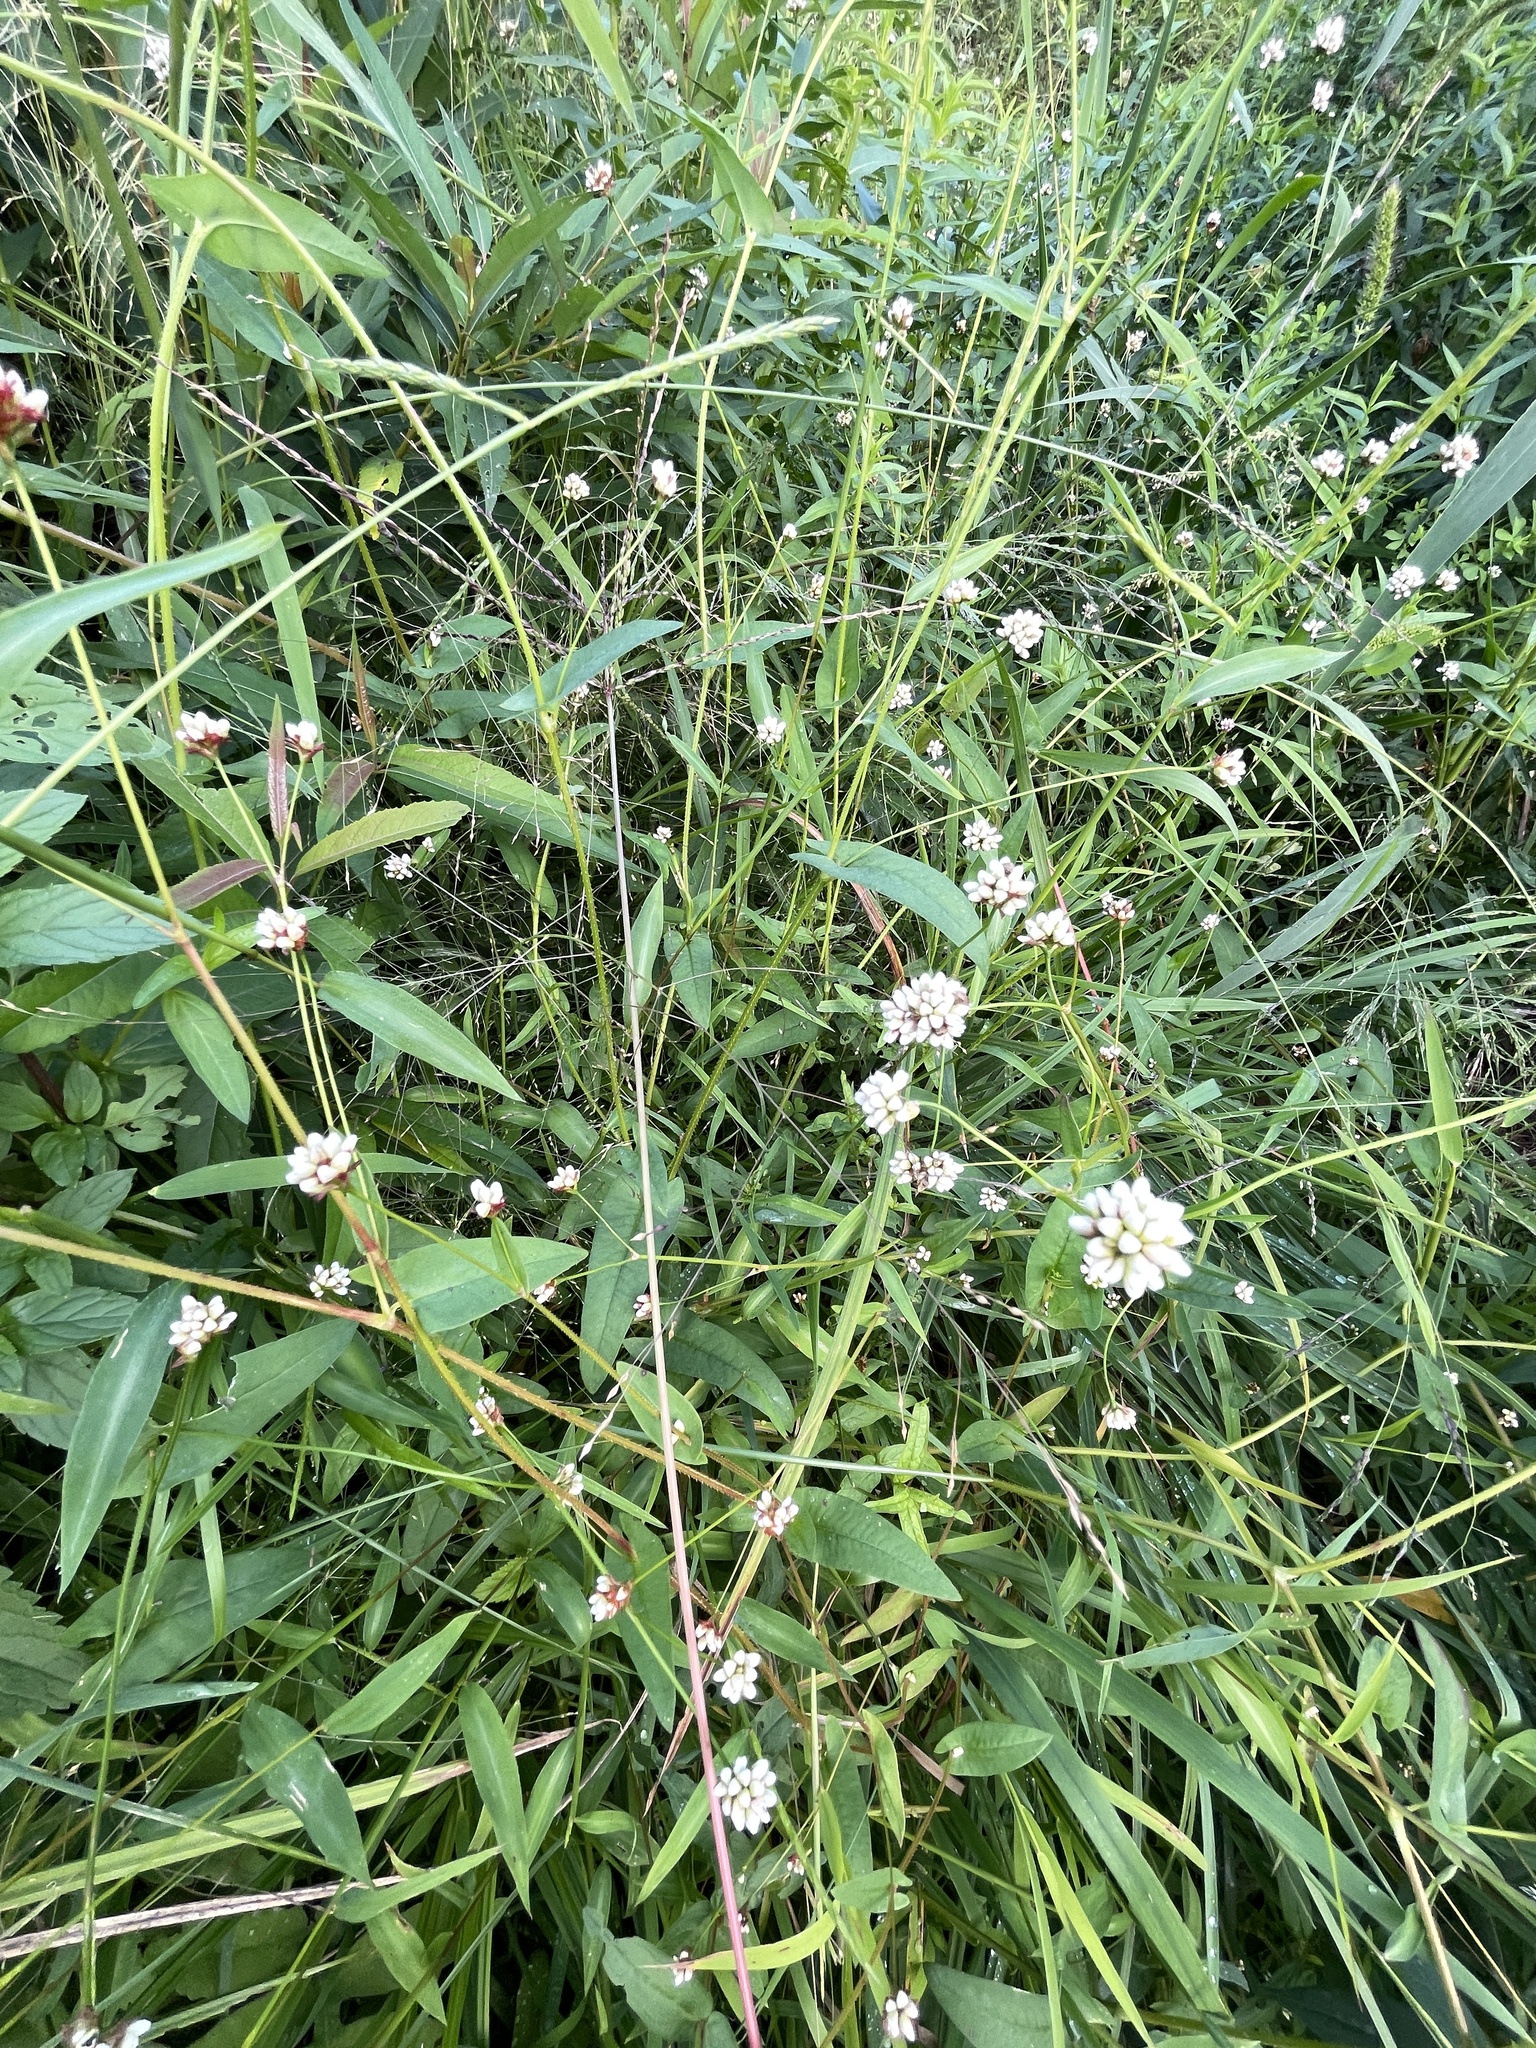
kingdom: Plantae
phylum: Tracheophyta
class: Magnoliopsida
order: Caryophyllales
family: Polygonaceae
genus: Persicaria
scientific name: Persicaria sagittata
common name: American tearthumb
